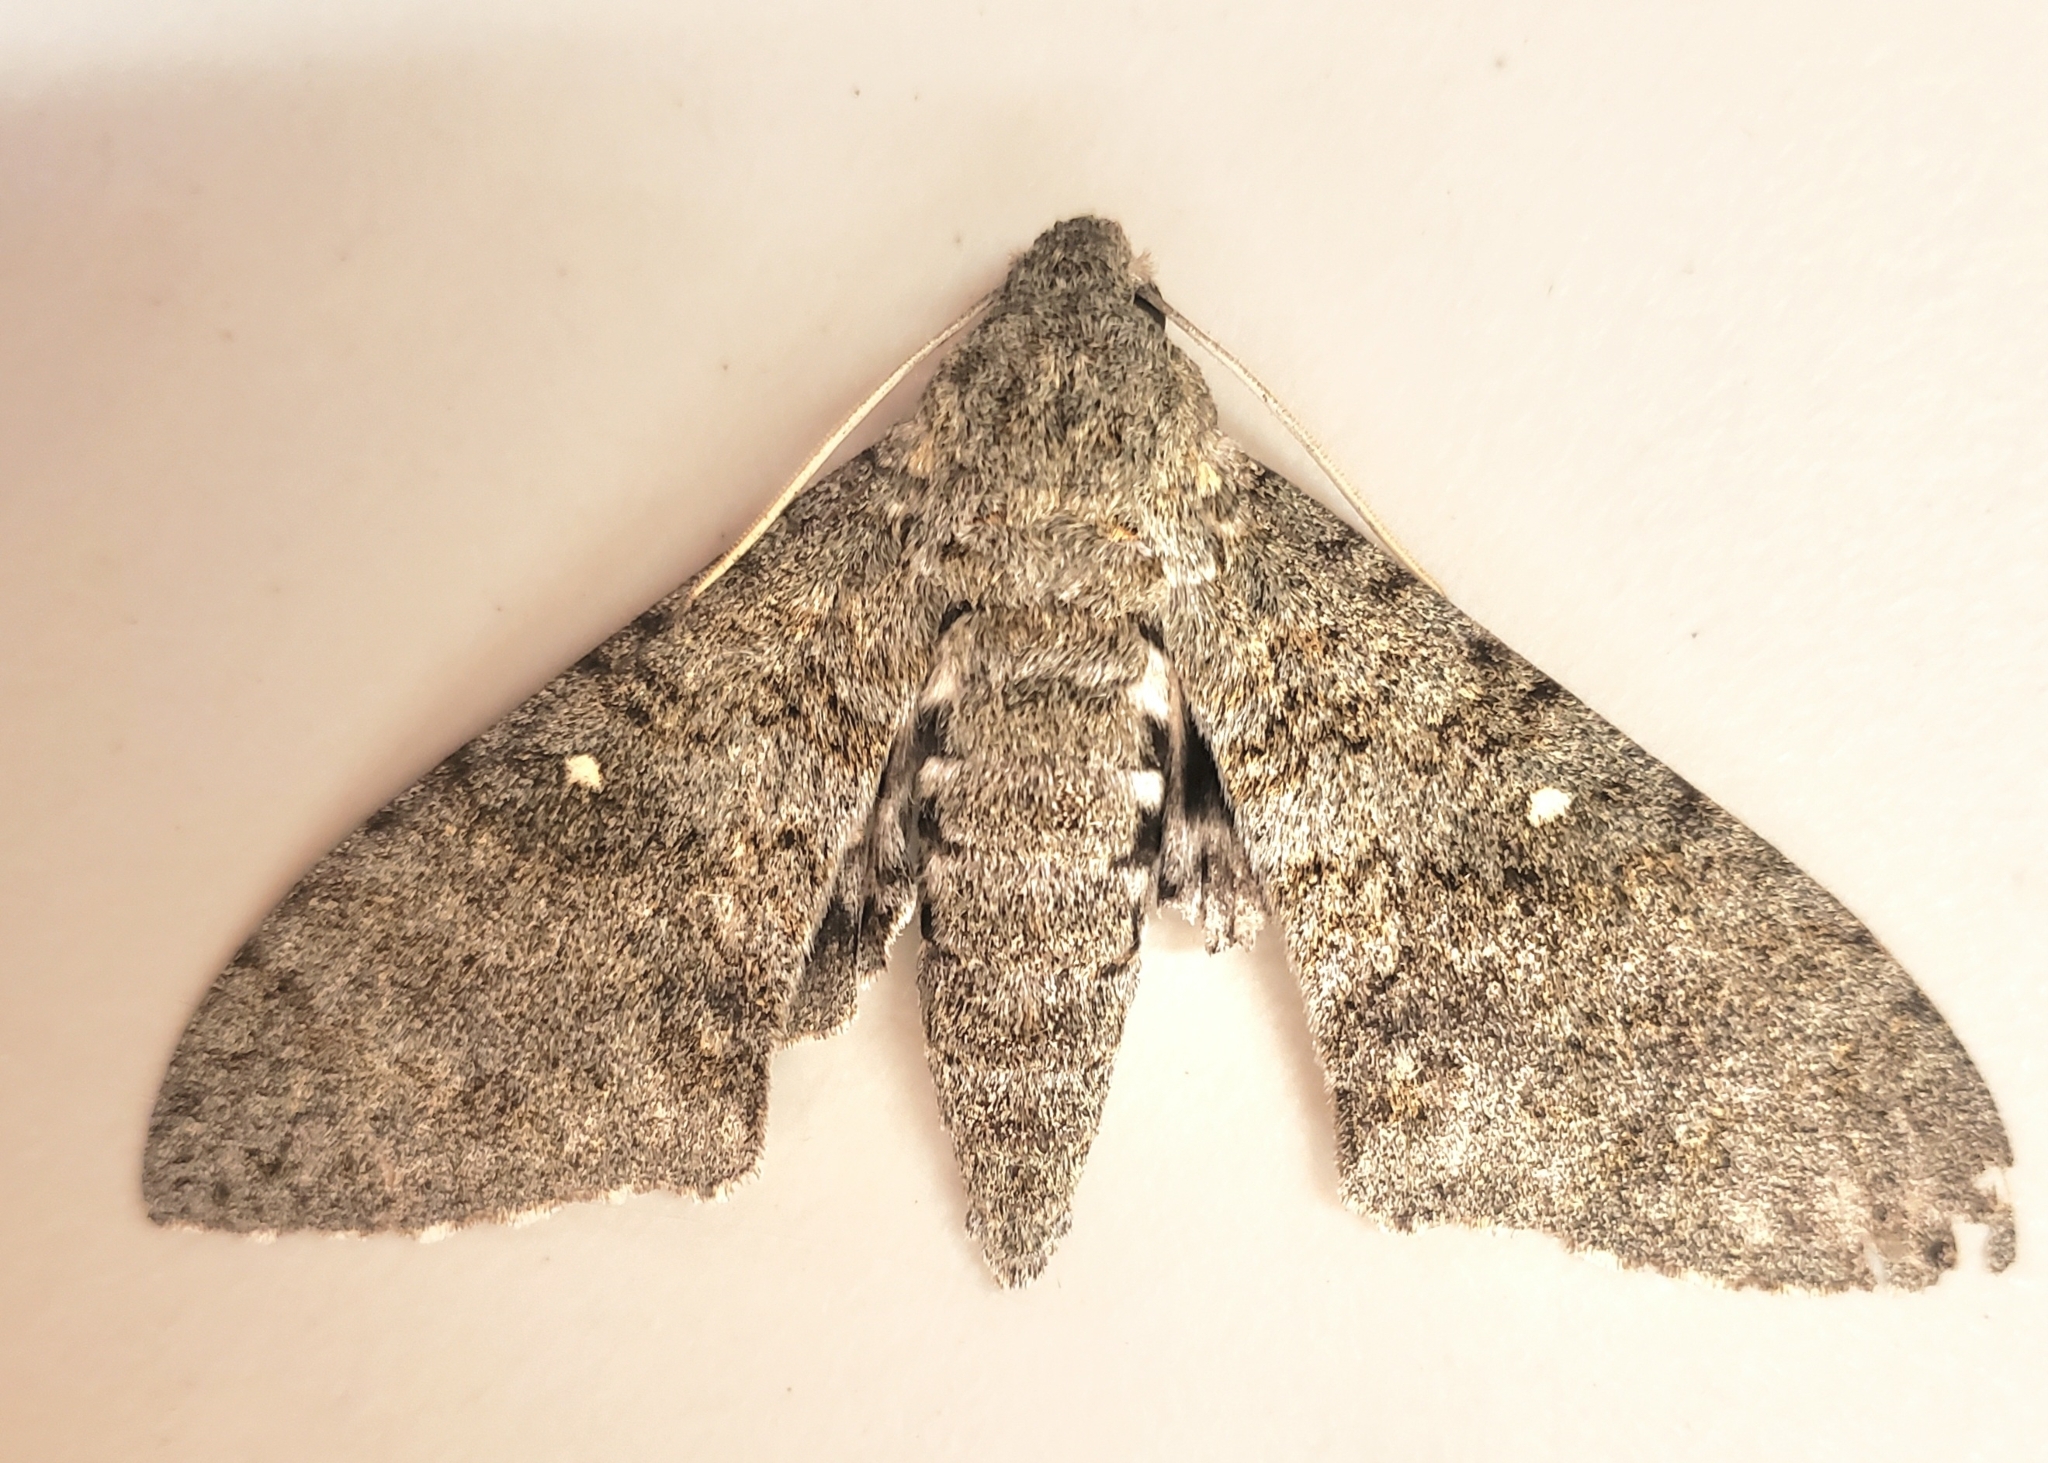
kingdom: Animalia
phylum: Arthropoda
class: Insecta
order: Lepidoptera
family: Sphingidae
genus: Manduca
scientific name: Manduca muscosa
